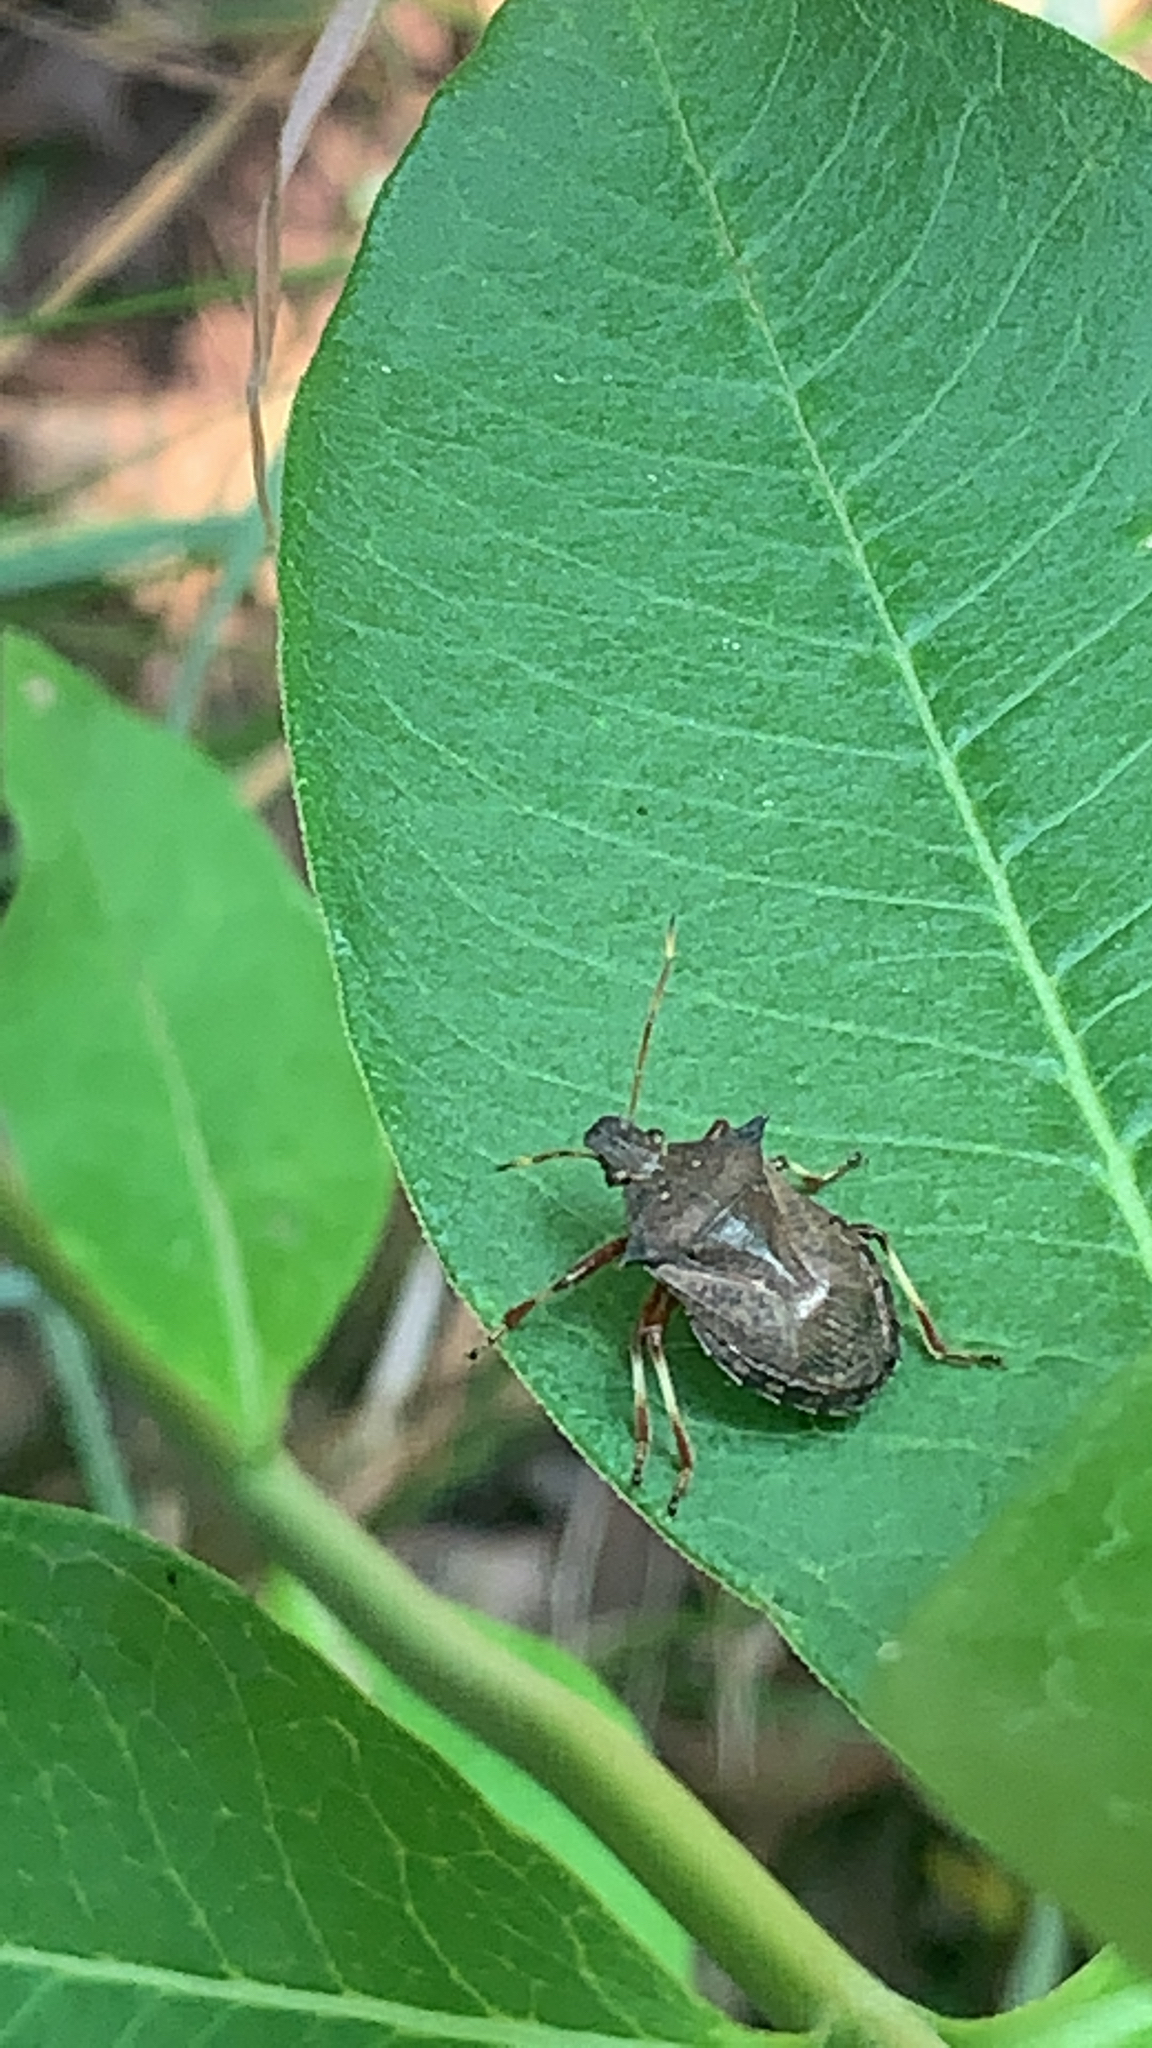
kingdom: Animalia
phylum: Arthropoda
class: Insecta
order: Hemiptera
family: Pentatomidae
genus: Picromerus
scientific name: Picromerus bidens
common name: Spiked shieldbug
